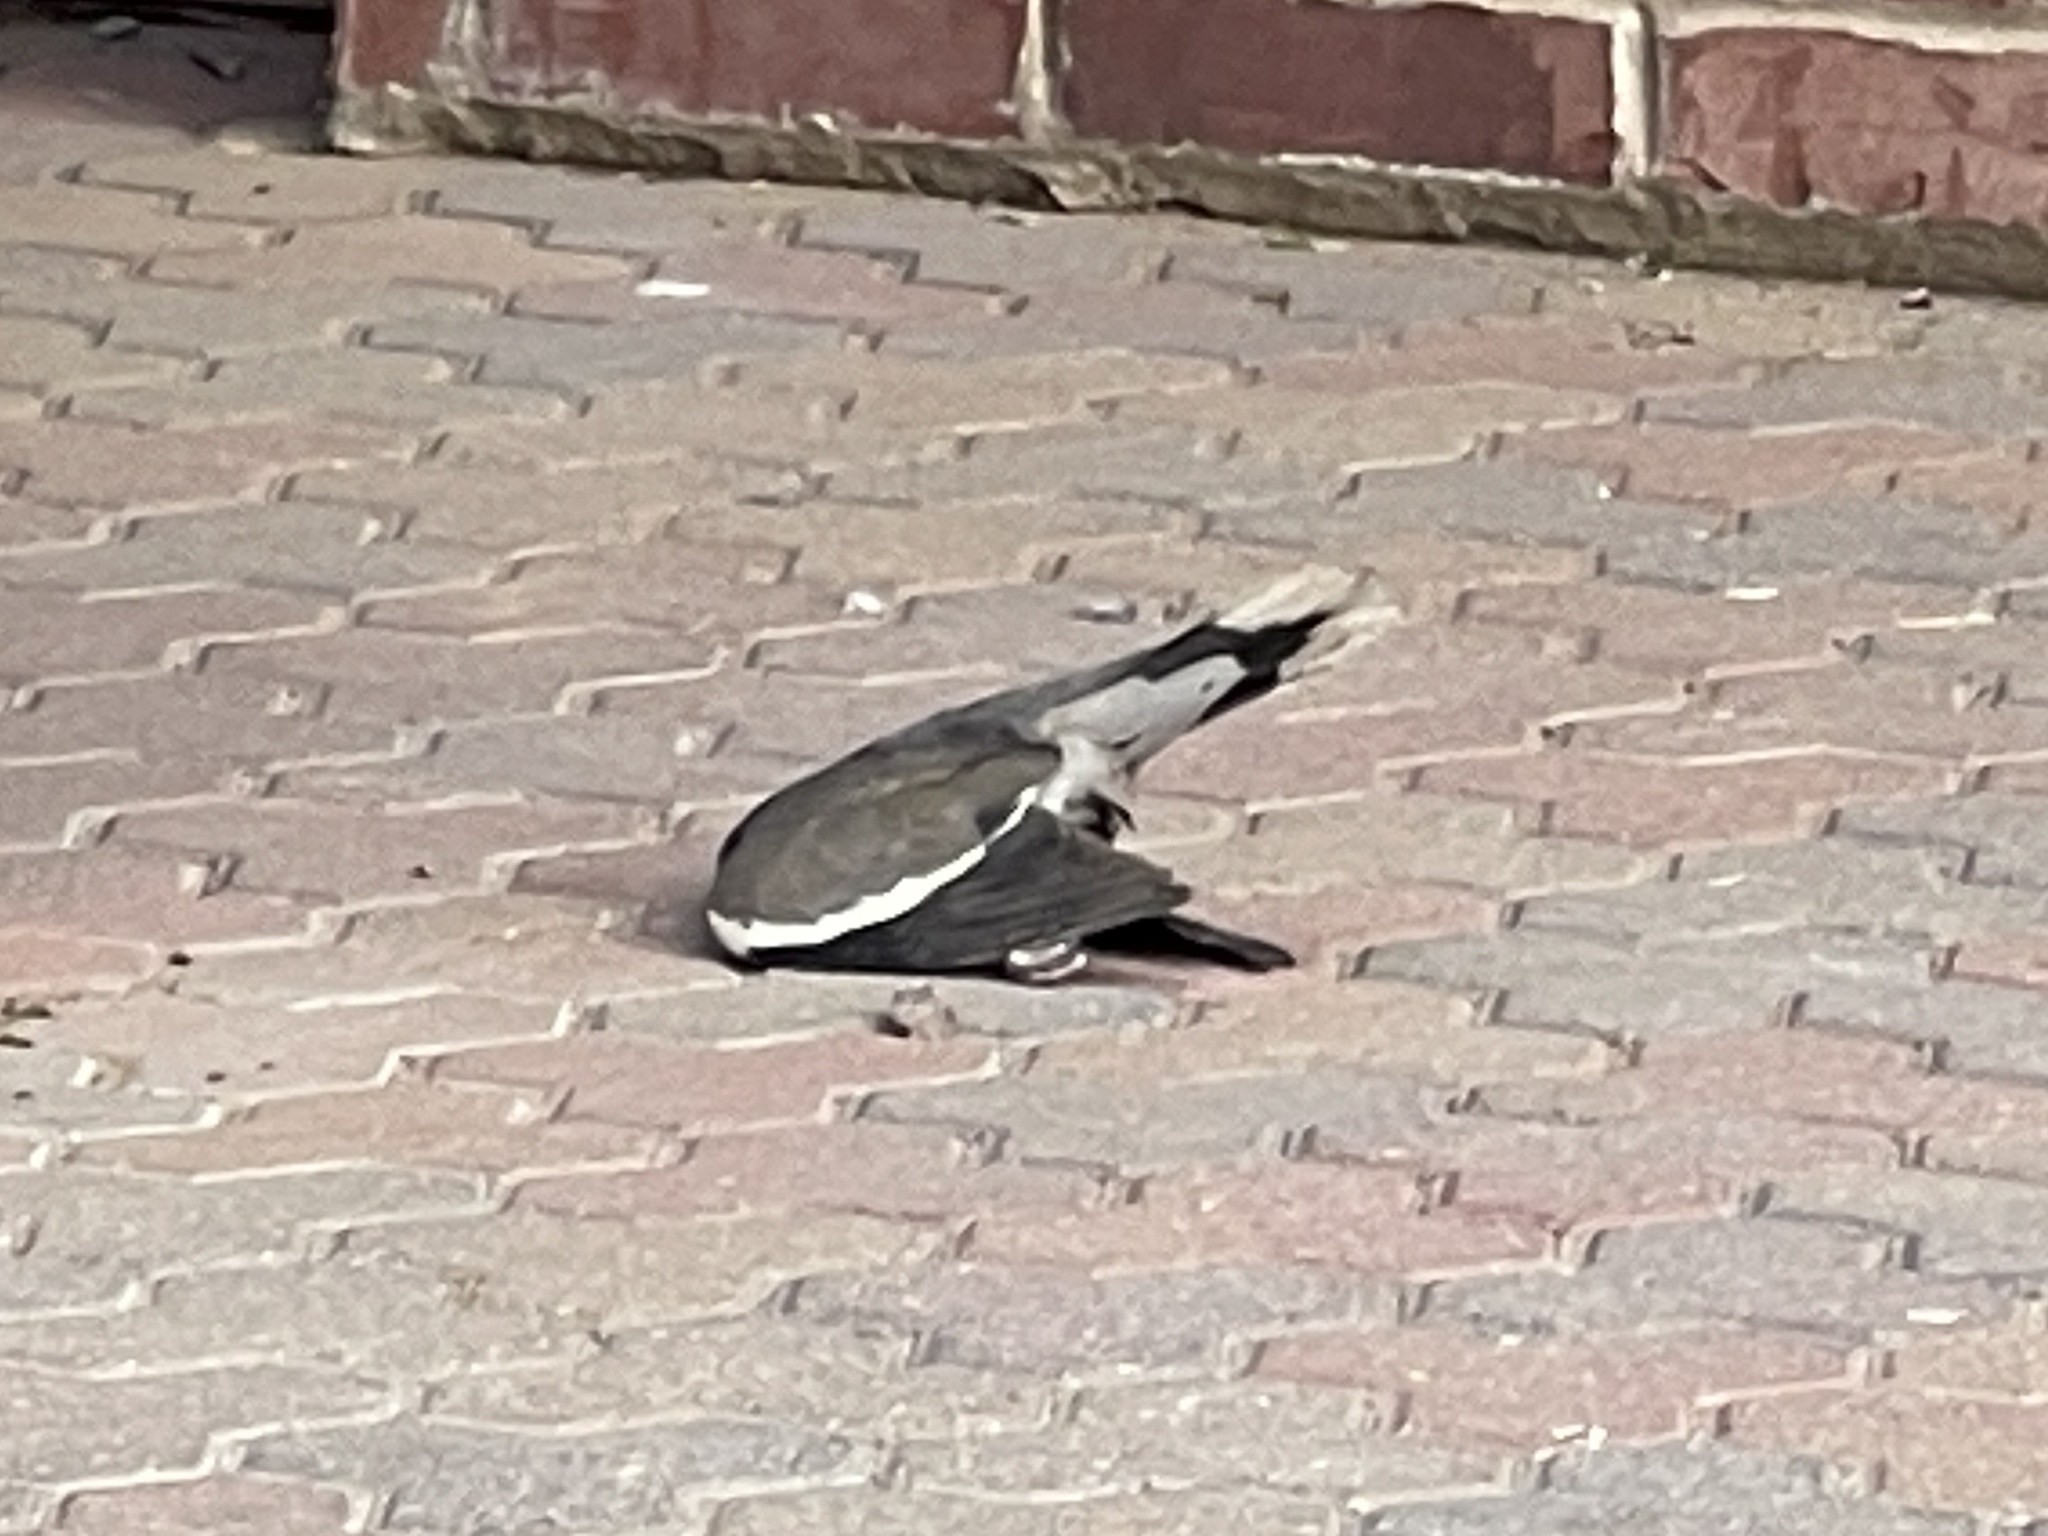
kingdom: Animalia
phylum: Chordata
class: Aves
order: Columbiformes
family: Columbidae
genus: Zenaida
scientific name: Zenaida asiatica
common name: White-winged dove
